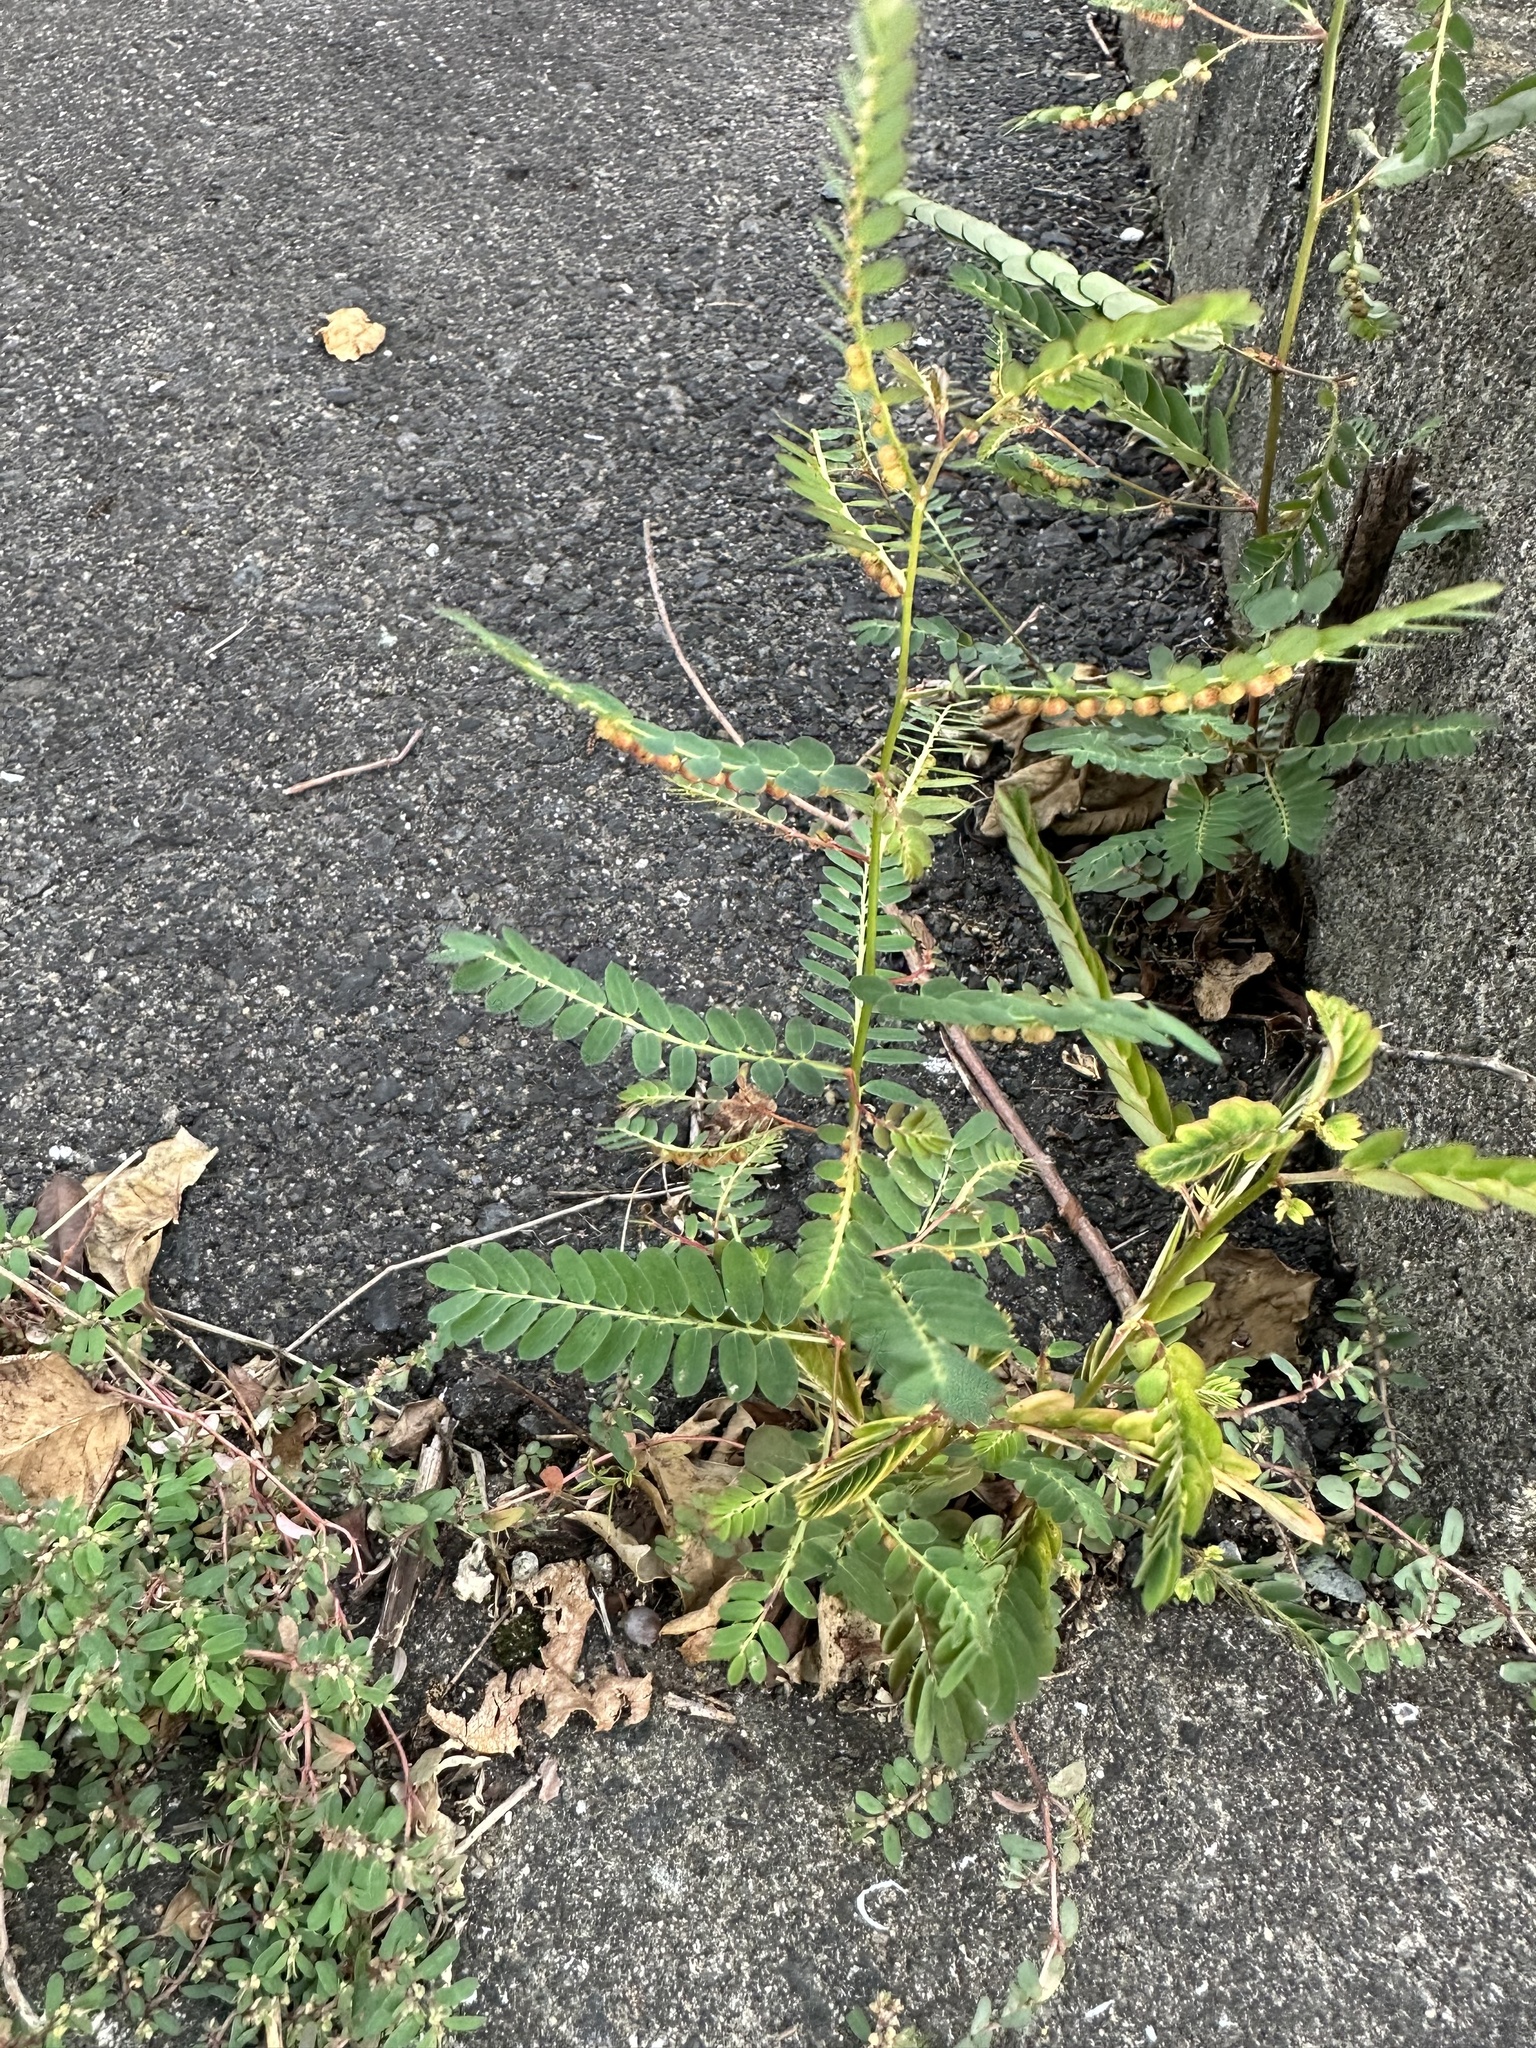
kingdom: Plantae
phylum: Tracheophyta
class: Magnoliopsida
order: Malpighiales
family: Phyllanthaceae
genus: Phyllanthus
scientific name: Phyllanthus urinaria
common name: Chamber bitter
